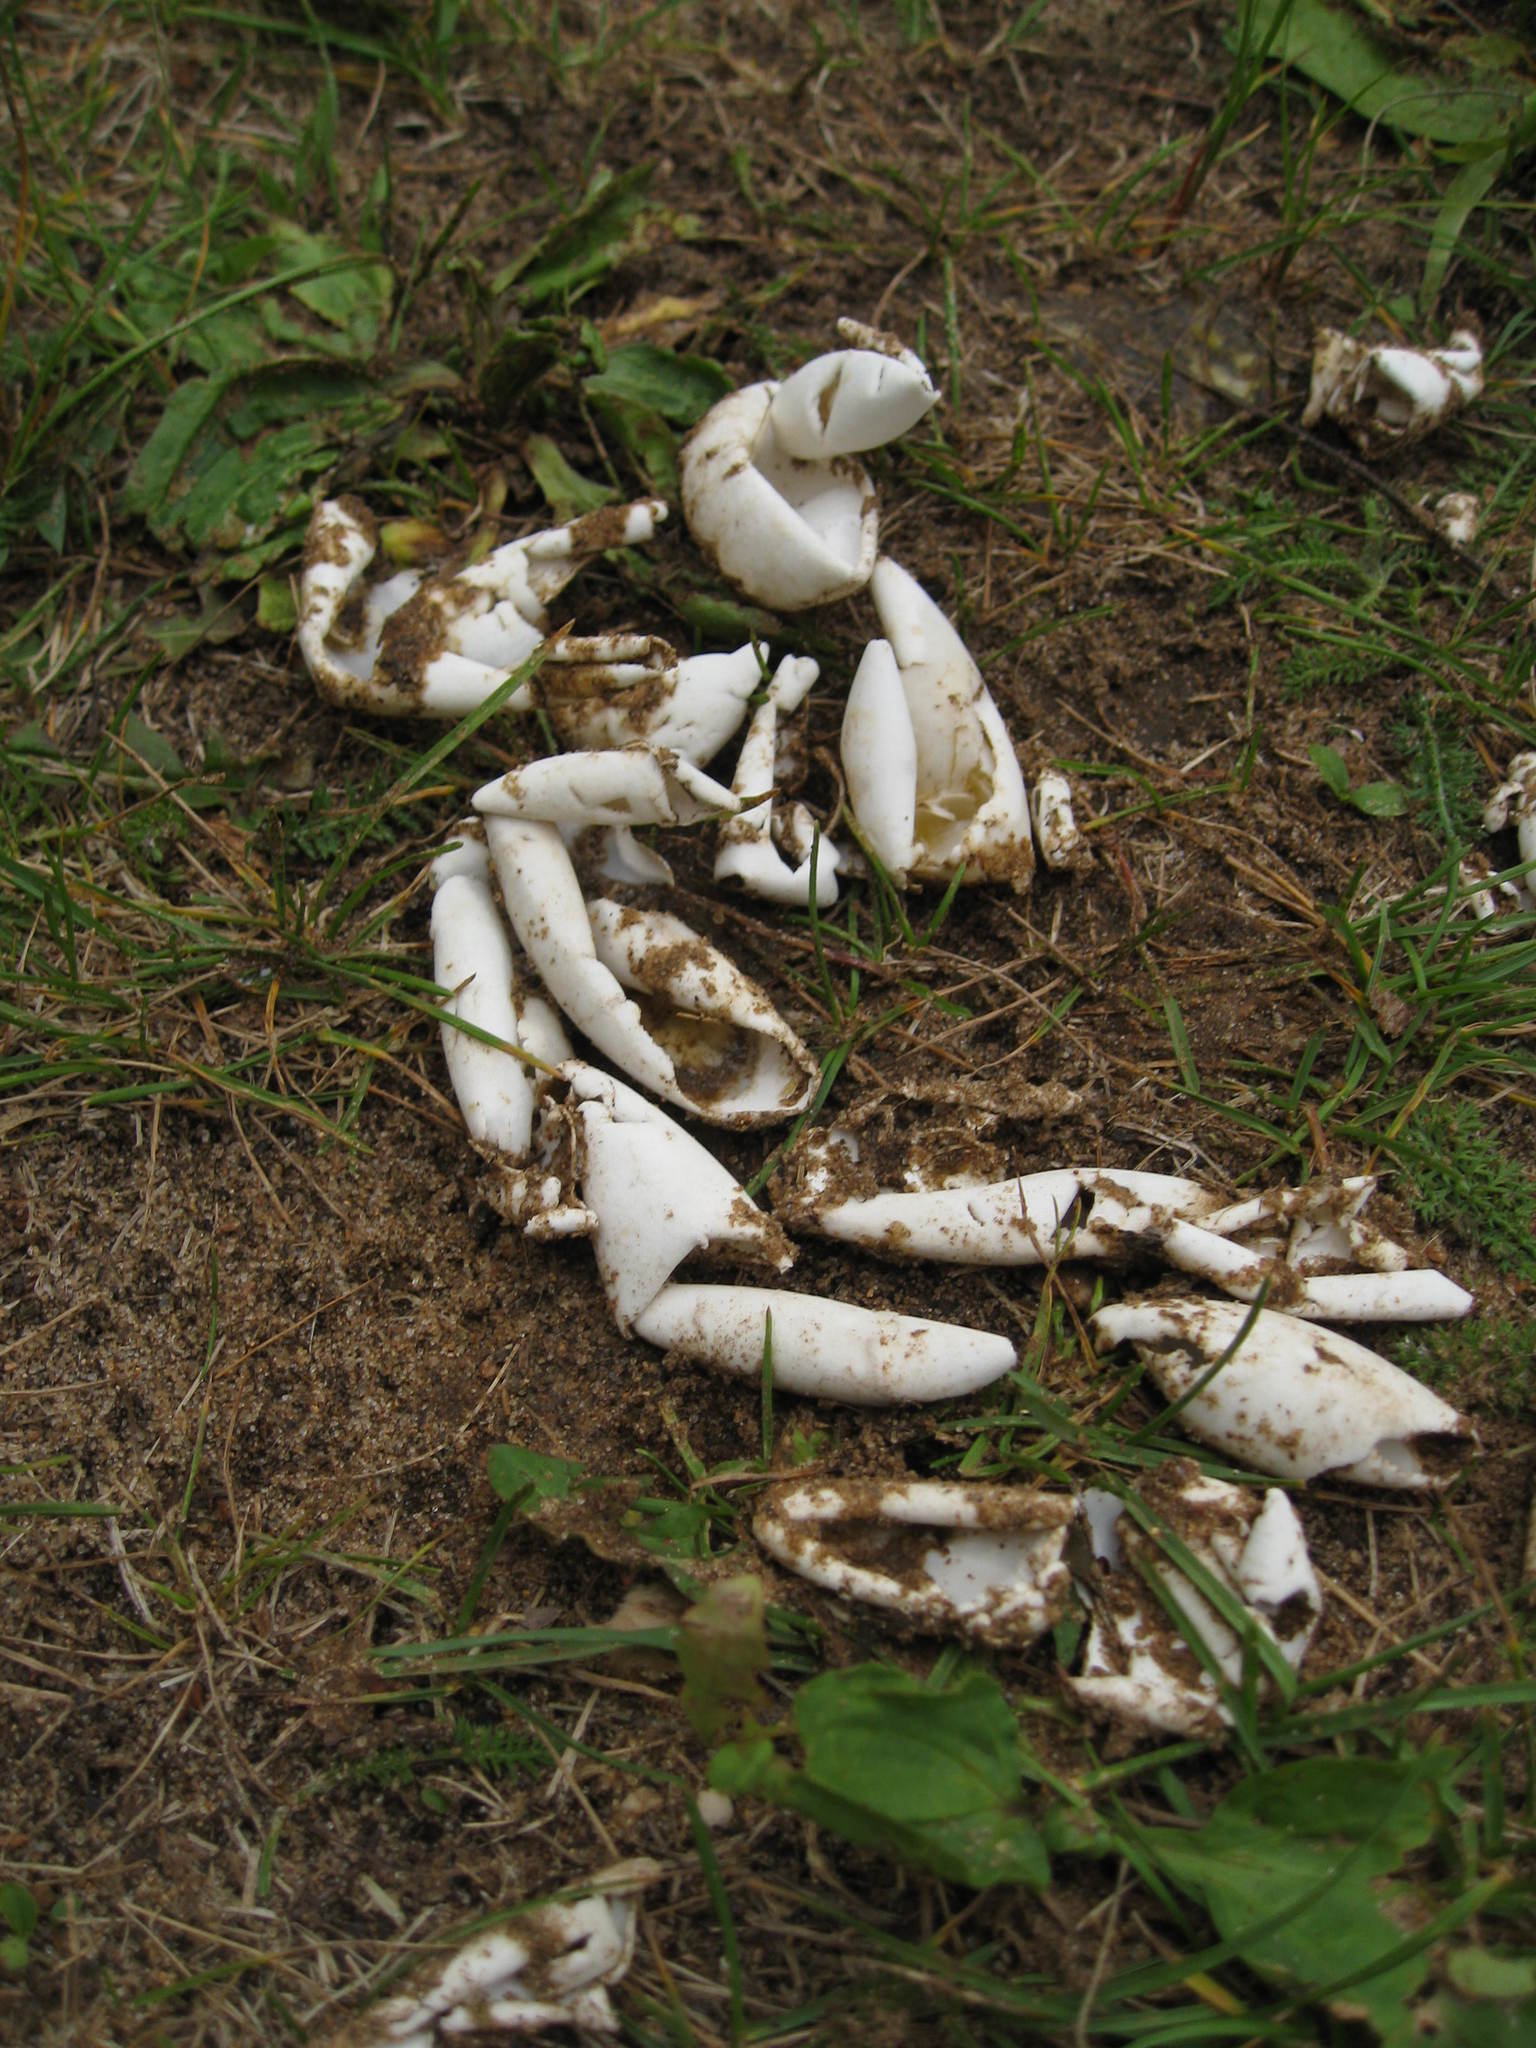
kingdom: Animalia
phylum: Chordata
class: Testudines
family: Chelydridae
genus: Chelydra
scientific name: Chelydra serpentina
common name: Common snapping turtle
